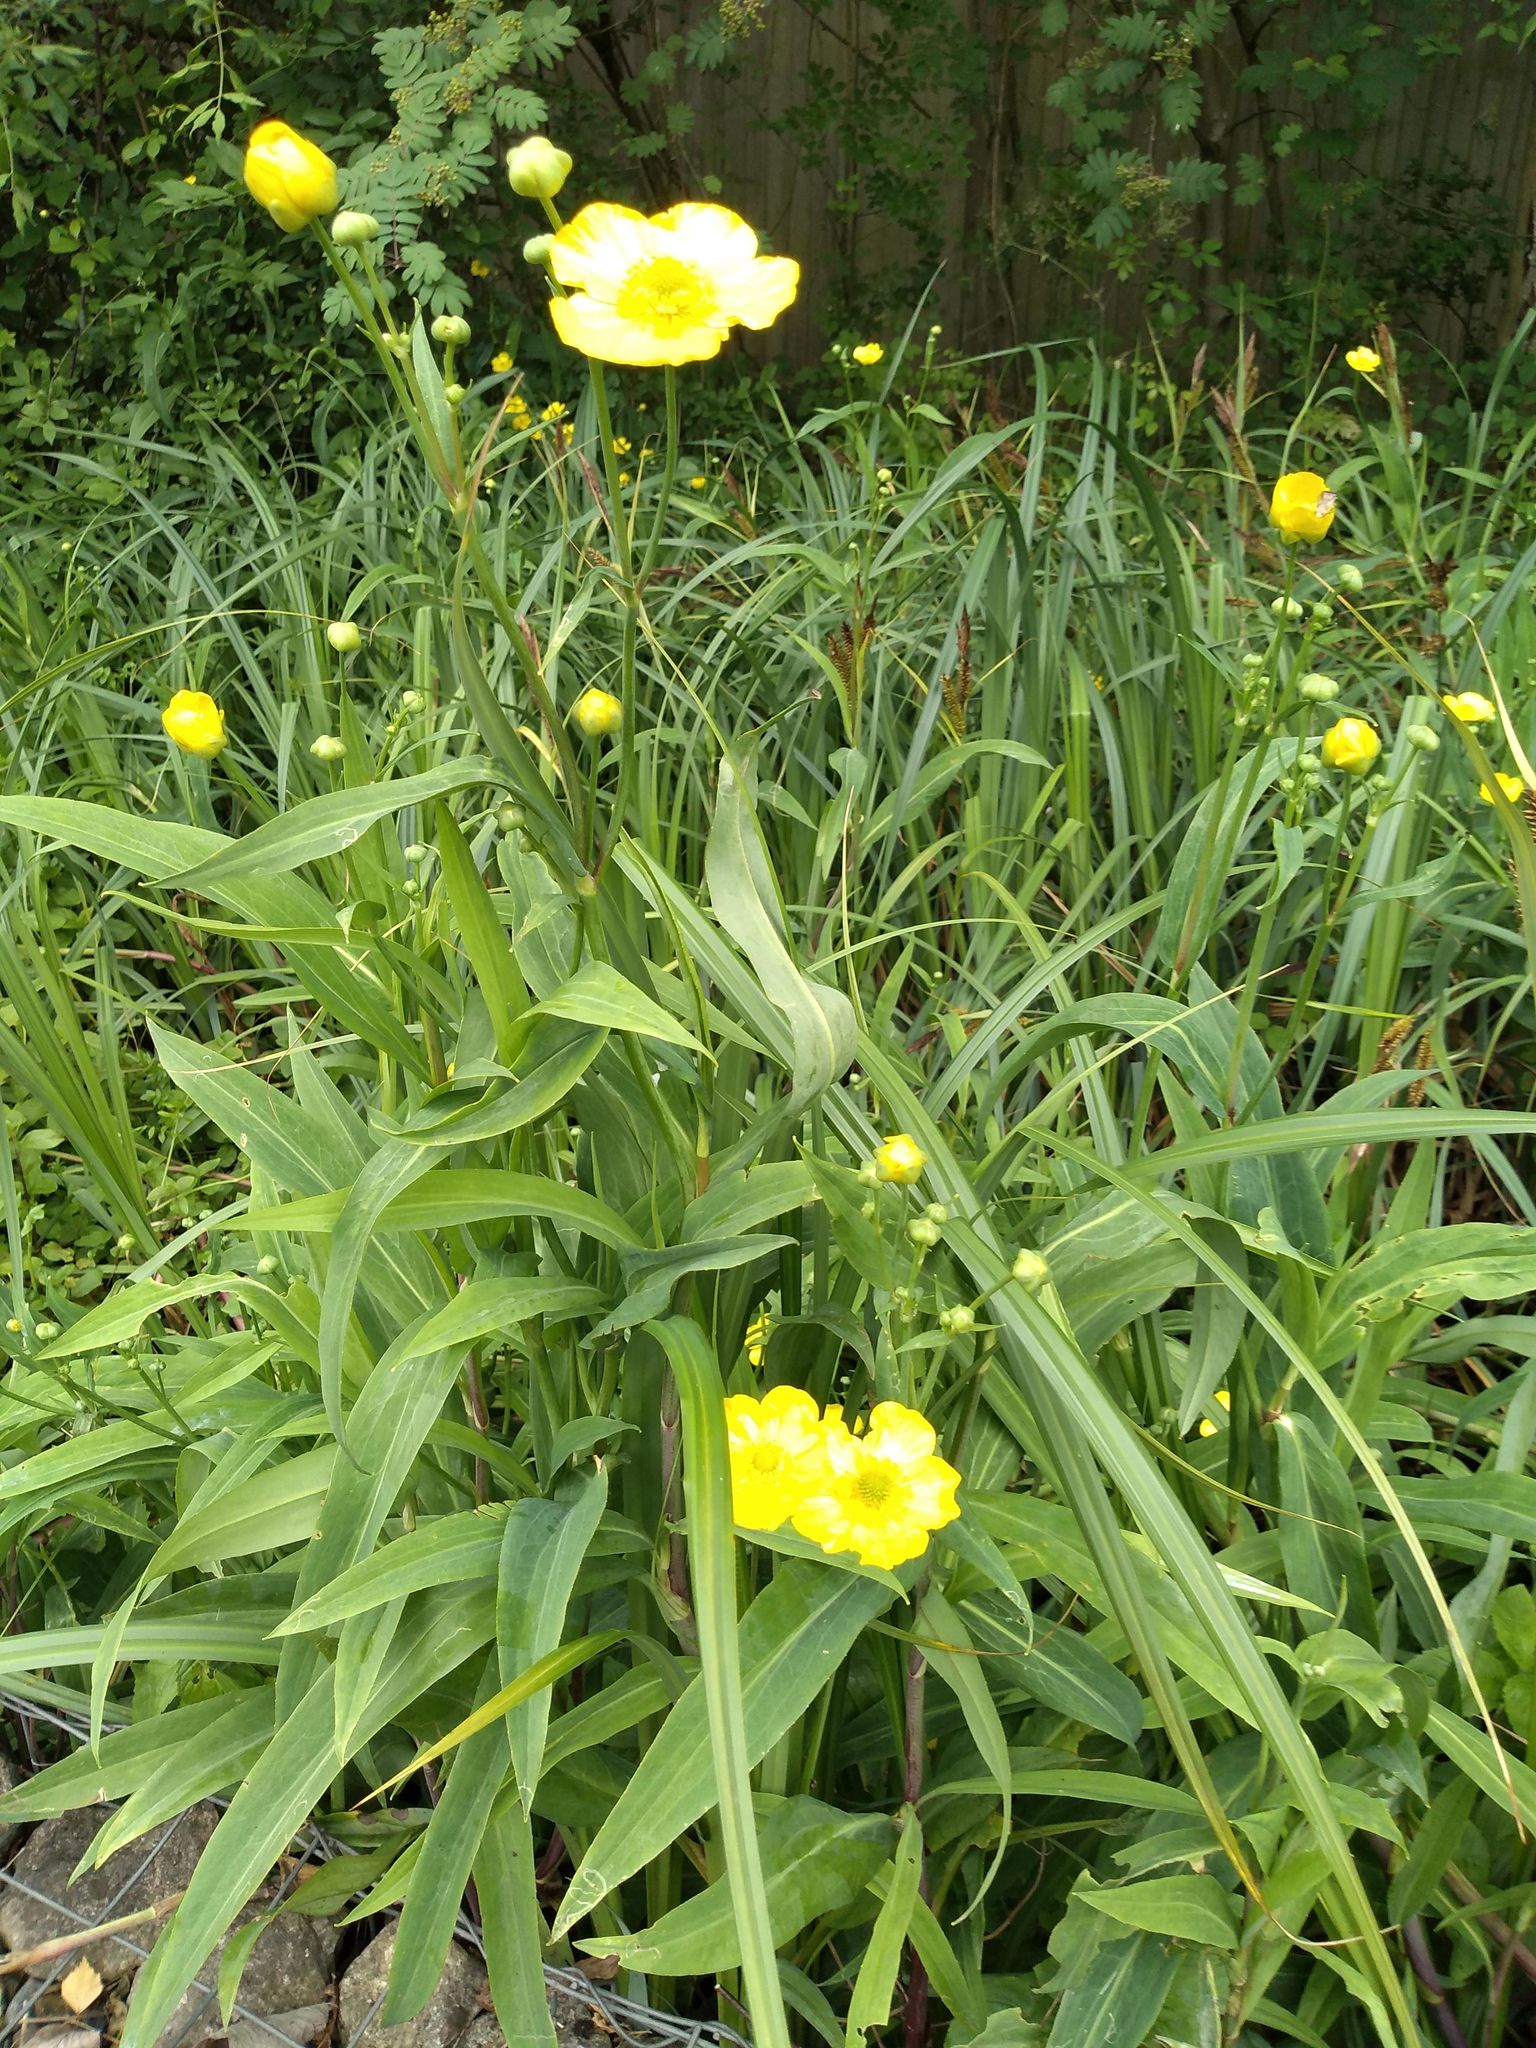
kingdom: Plantae
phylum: Tracheophyta
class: Magnoliopsida
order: Ranunculales
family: Ranunculaceae
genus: Ranunculus
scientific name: Ranunculus lingua
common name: Greater spearwort
